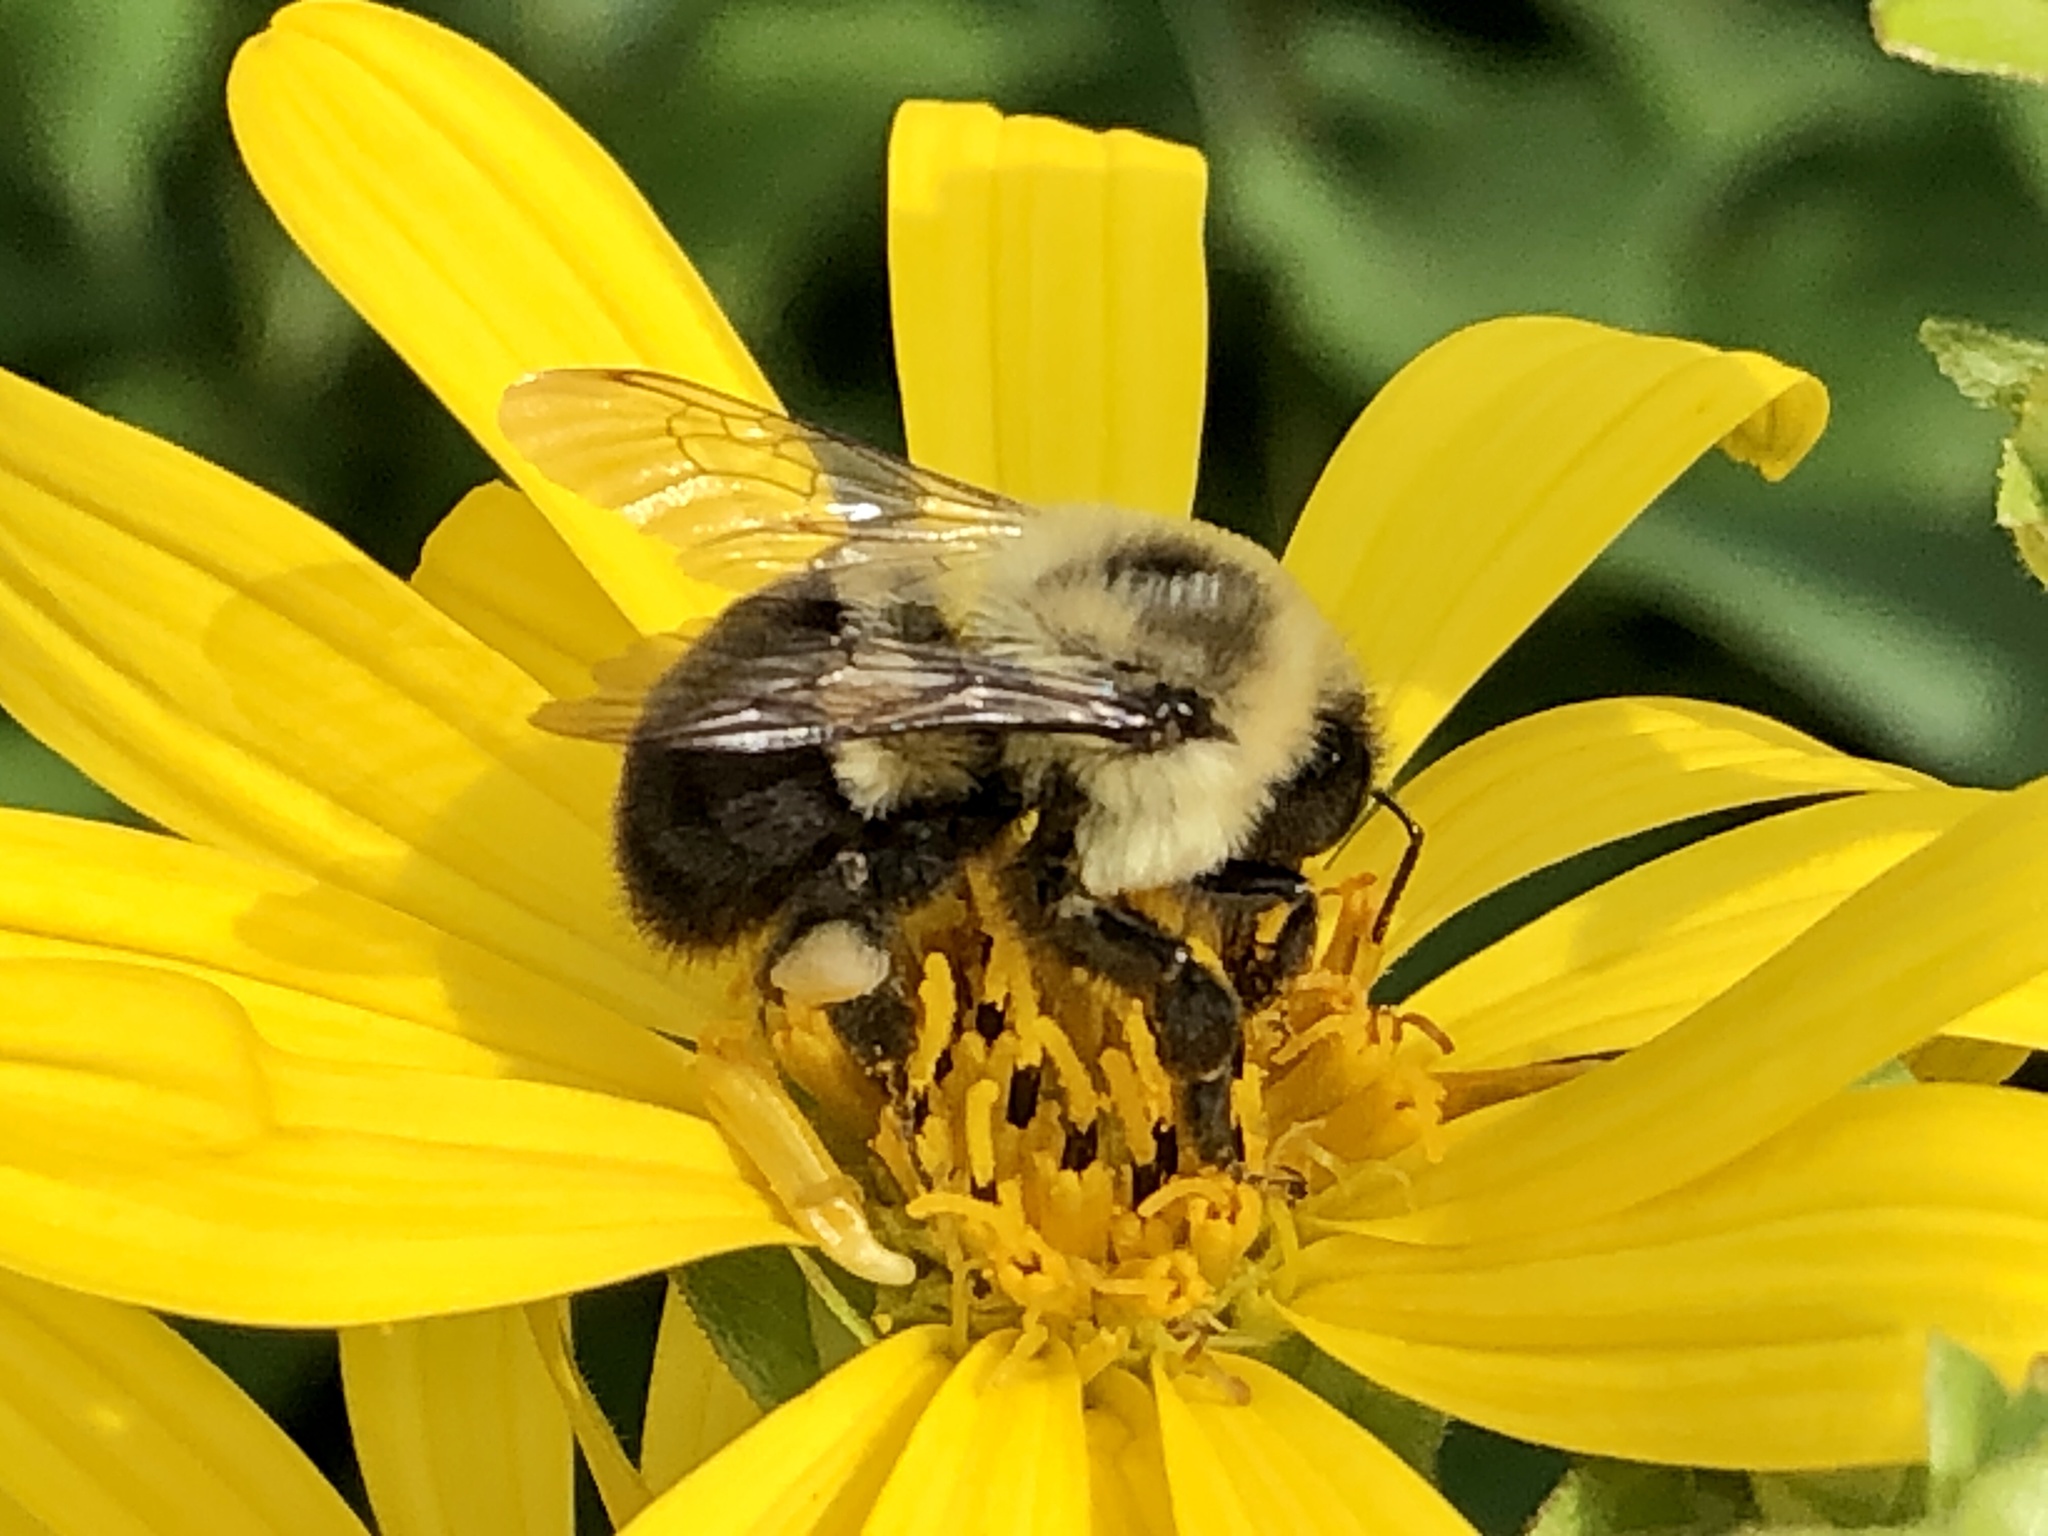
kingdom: Animalia
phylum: Arthropoda
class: Insecta
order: Hymenoptera
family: Apidae
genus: Bombus
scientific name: Bombus impatiens
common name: Common eastern bumble bee
